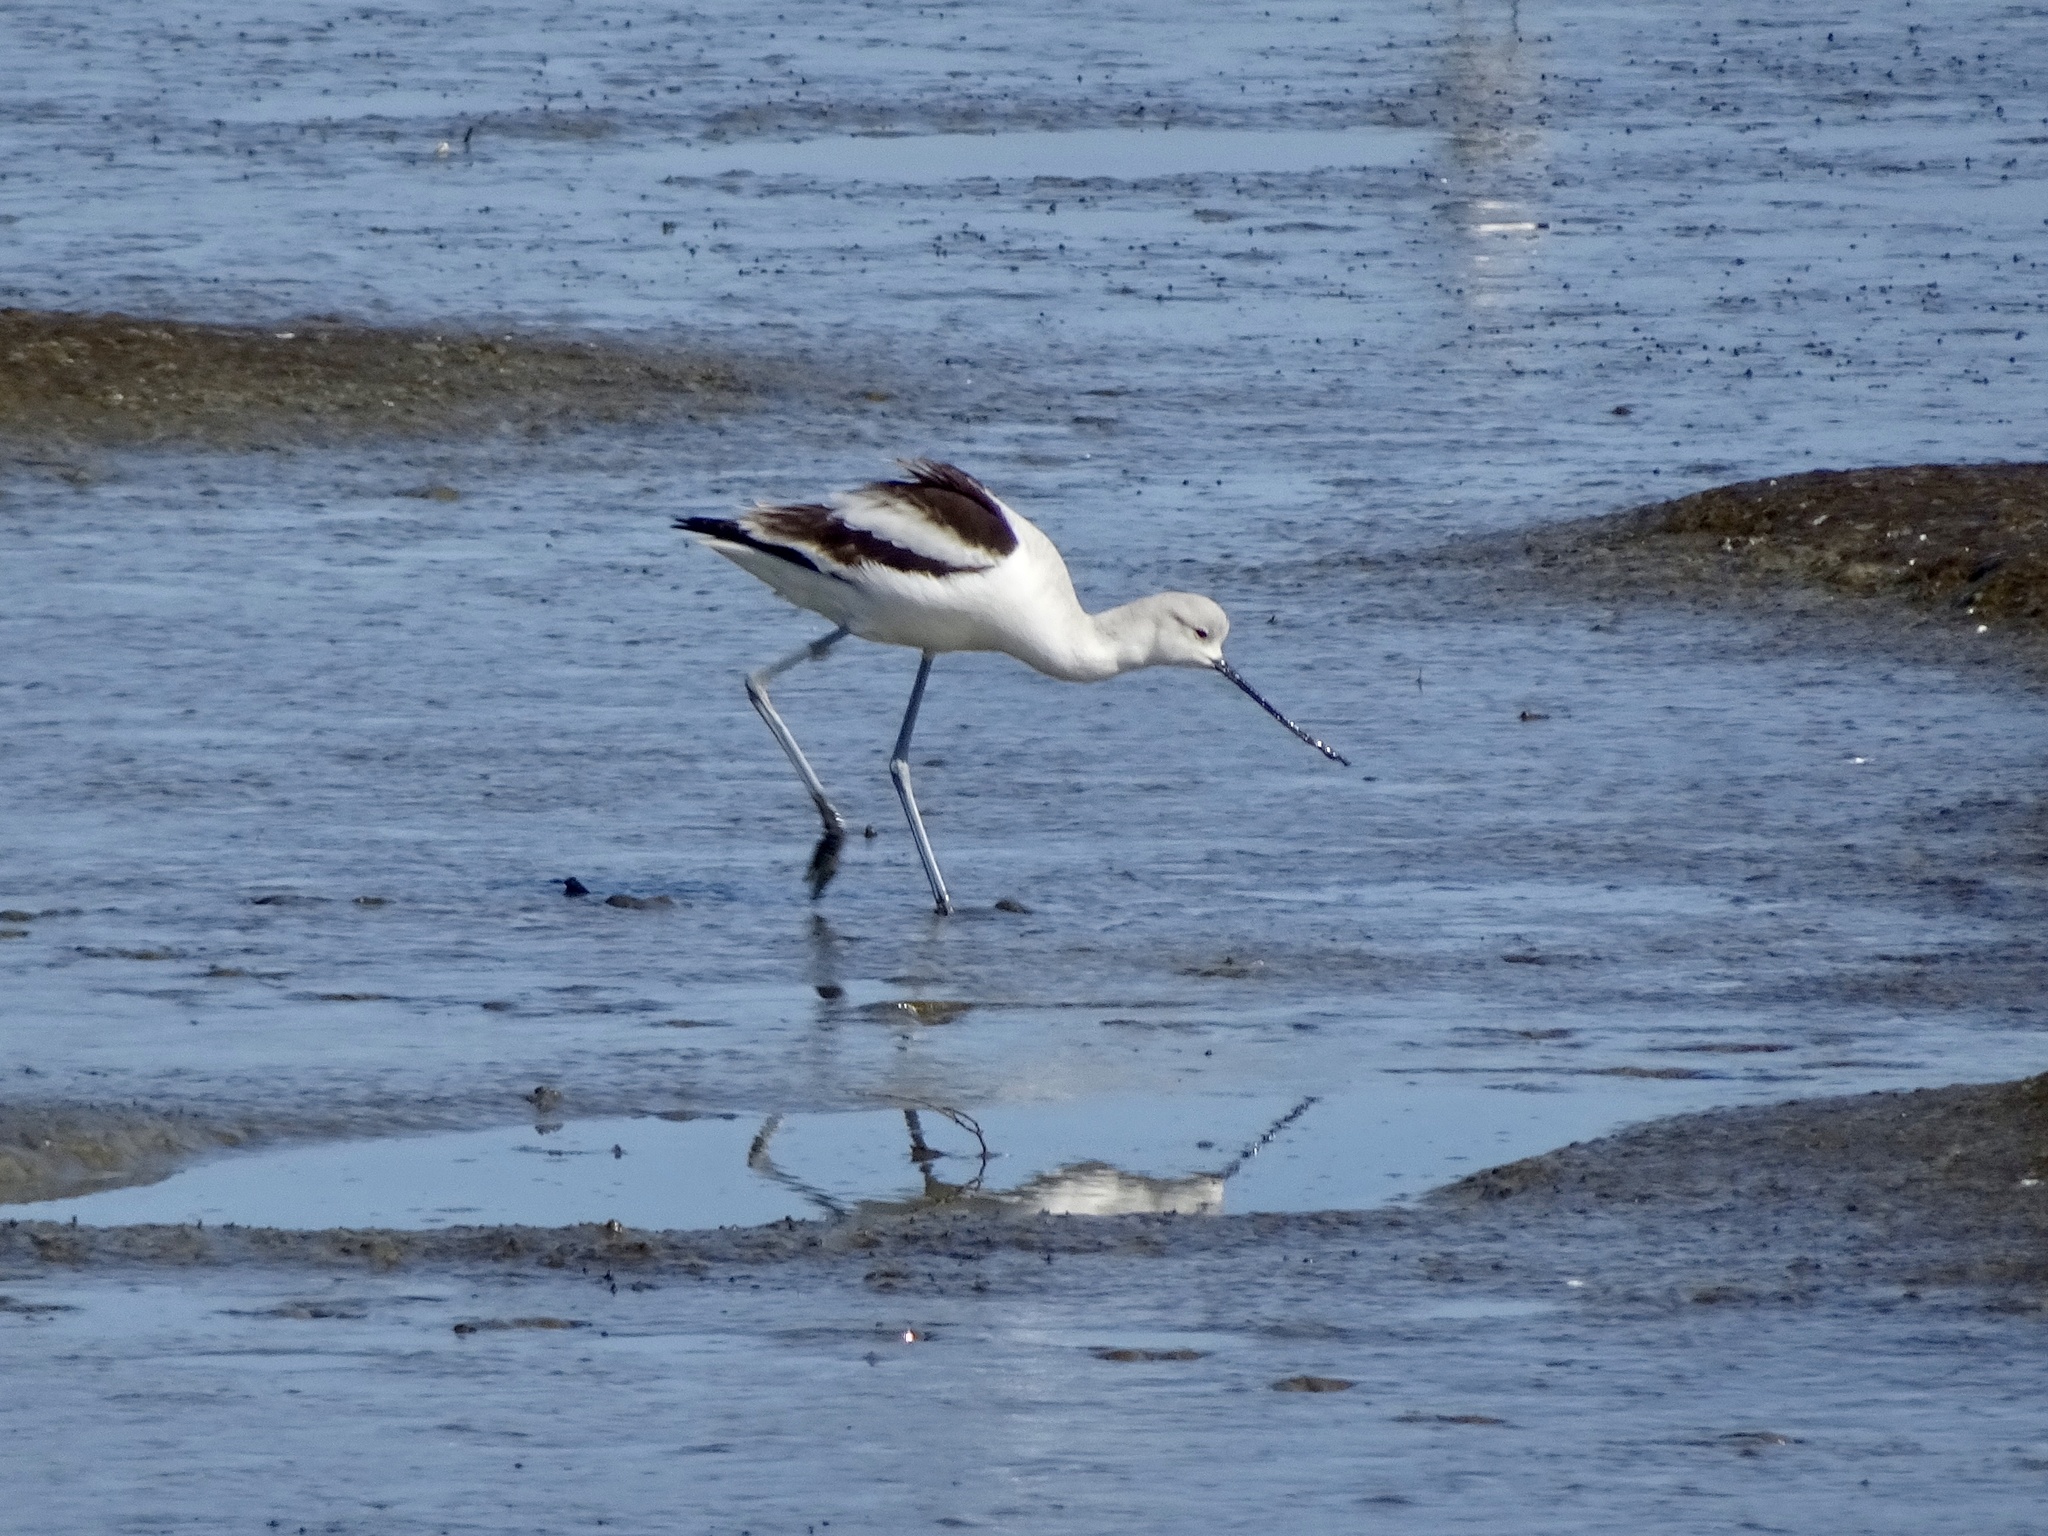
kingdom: Animalia
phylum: Chordata
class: Aves
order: Charadriiformes
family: Recurvirostridae
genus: Recurvirostra
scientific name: Recurvirostra americana
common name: American avocet
